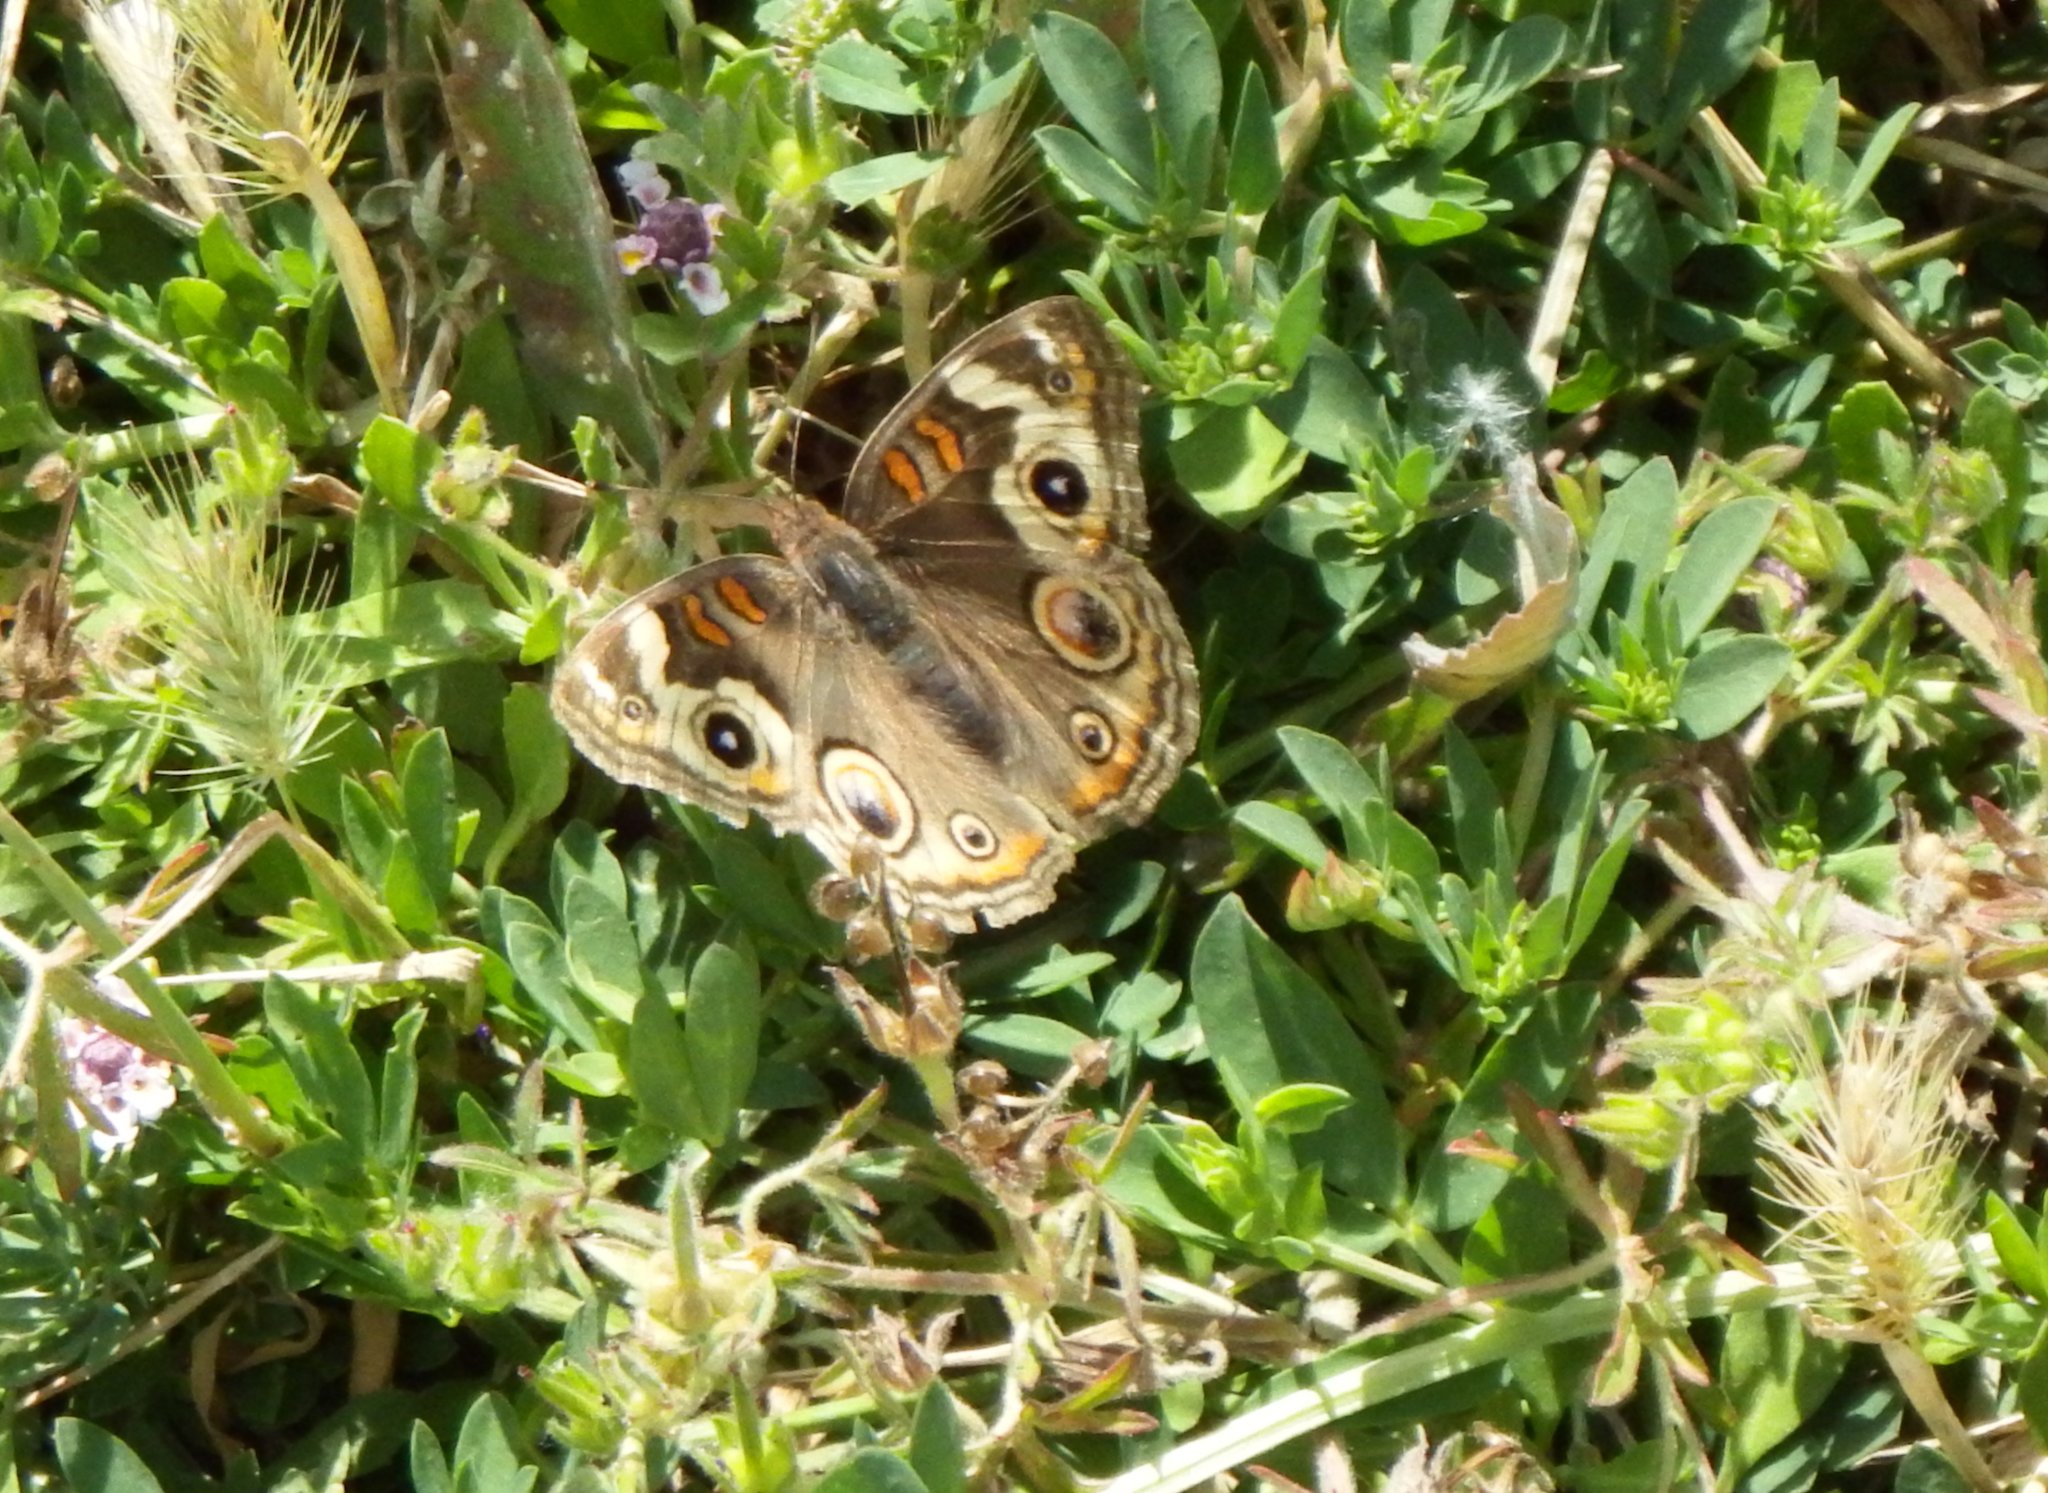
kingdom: Animalia
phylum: Arthropoda
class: Insecta
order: Lepidoptera
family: Nymphalidae
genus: Junonia
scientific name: Junonia grisea
